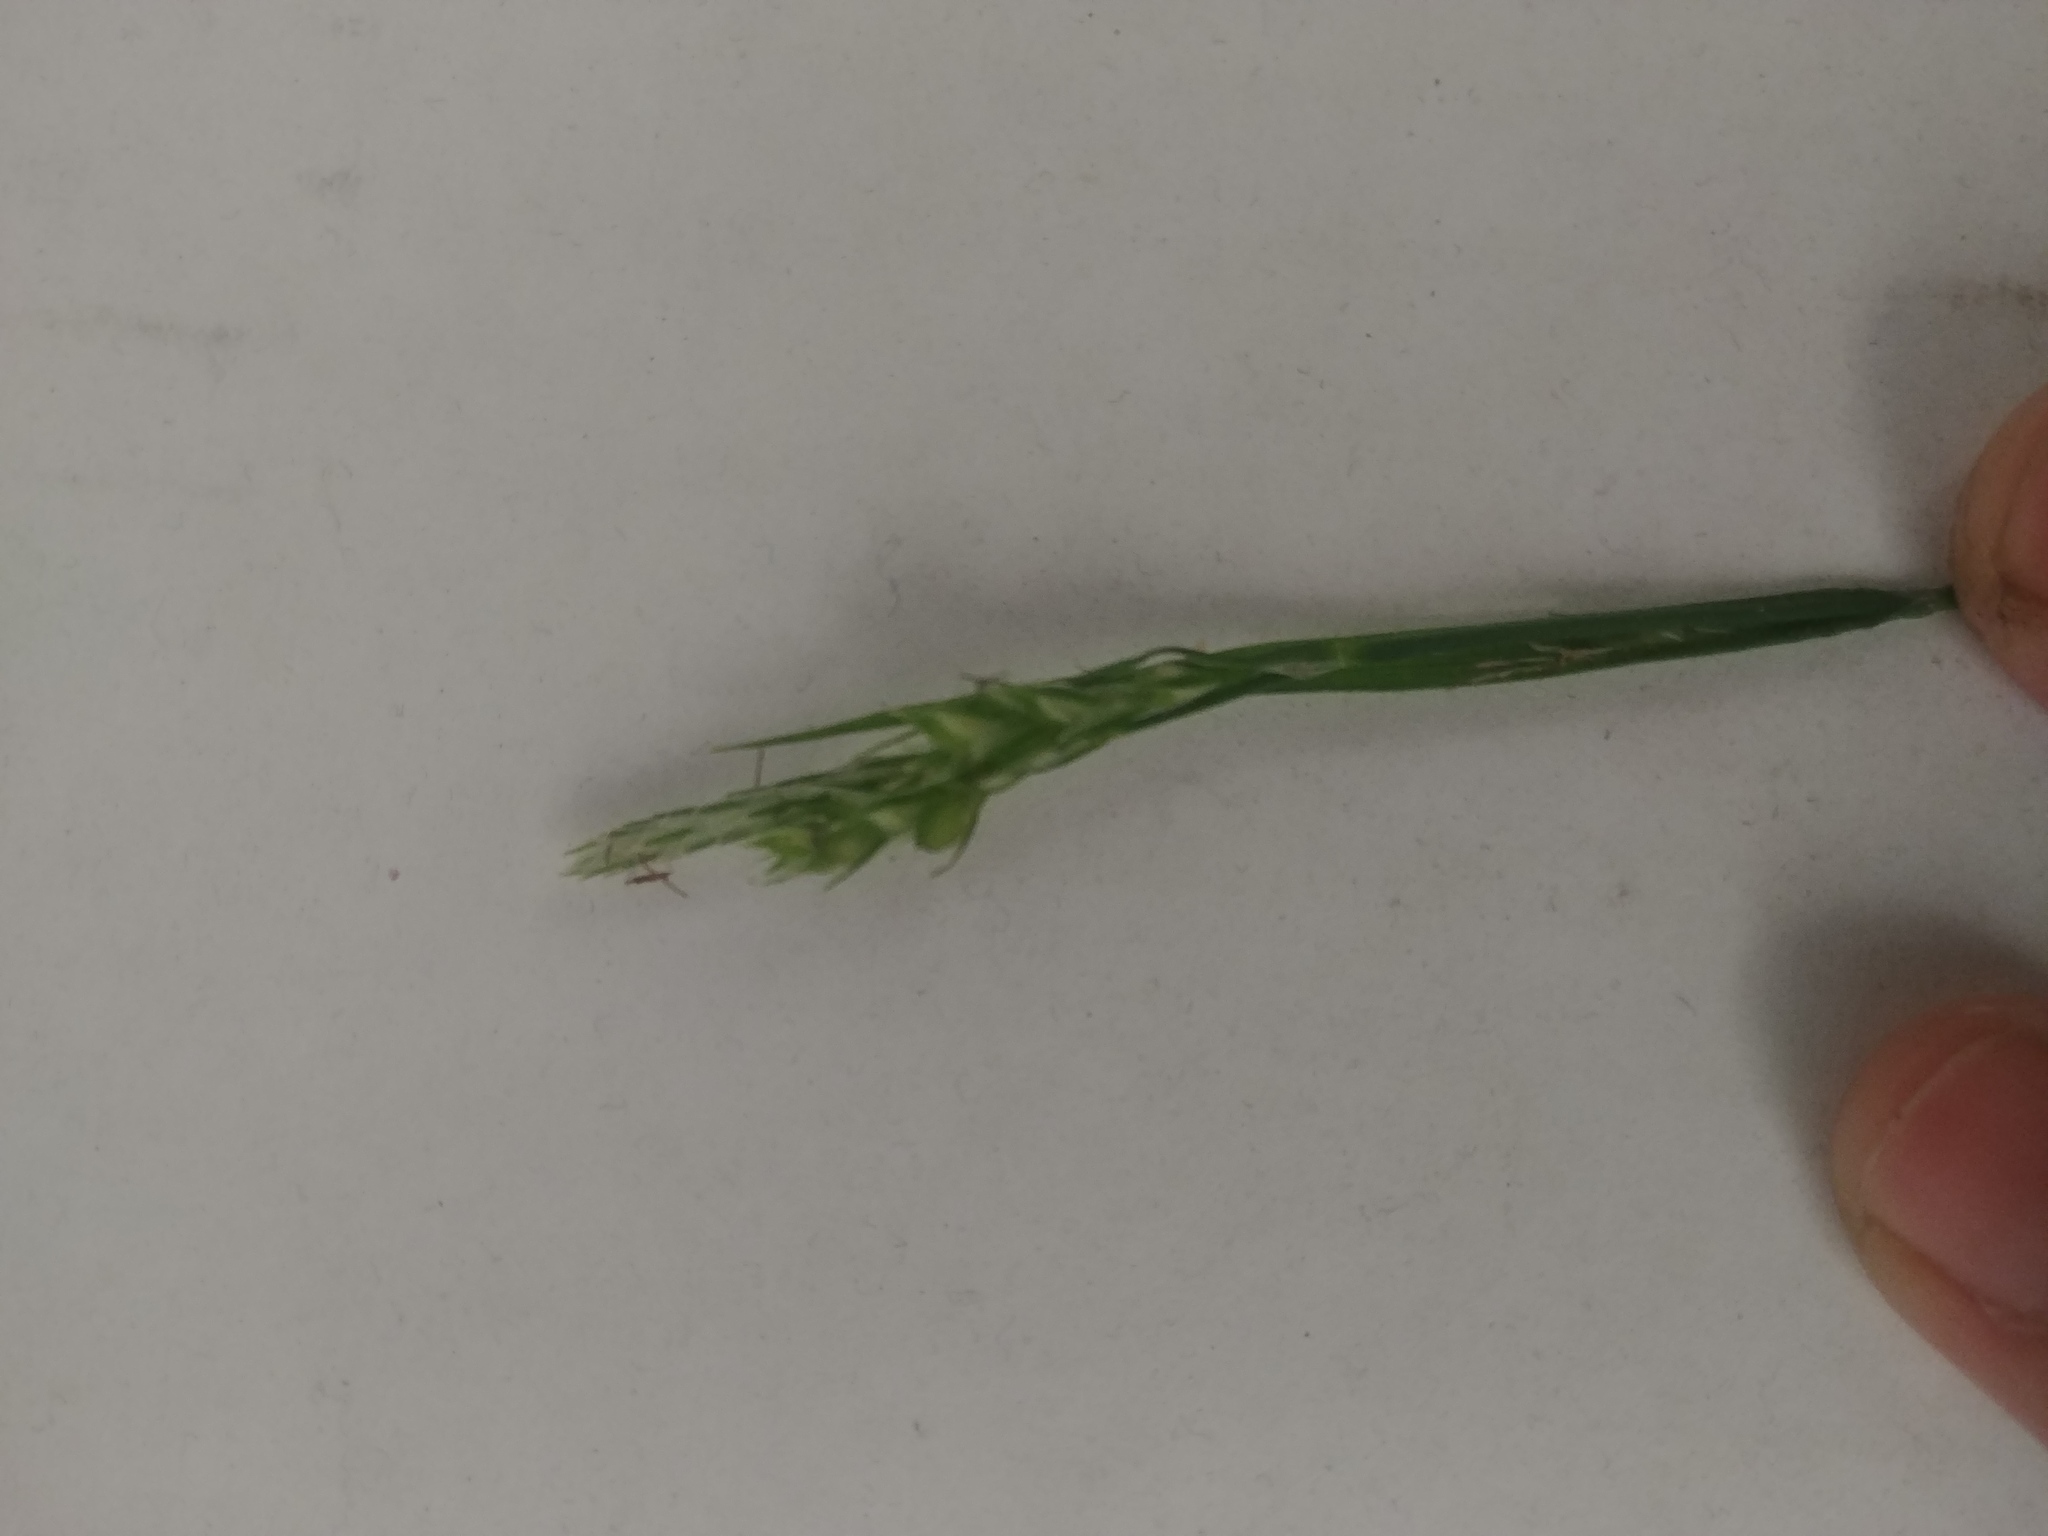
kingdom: Plantae
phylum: Tracheophyta
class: Liliopsida
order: Poales
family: Cyperaceae
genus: Carex
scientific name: Carex hirtifolia
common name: Hairy sedge
